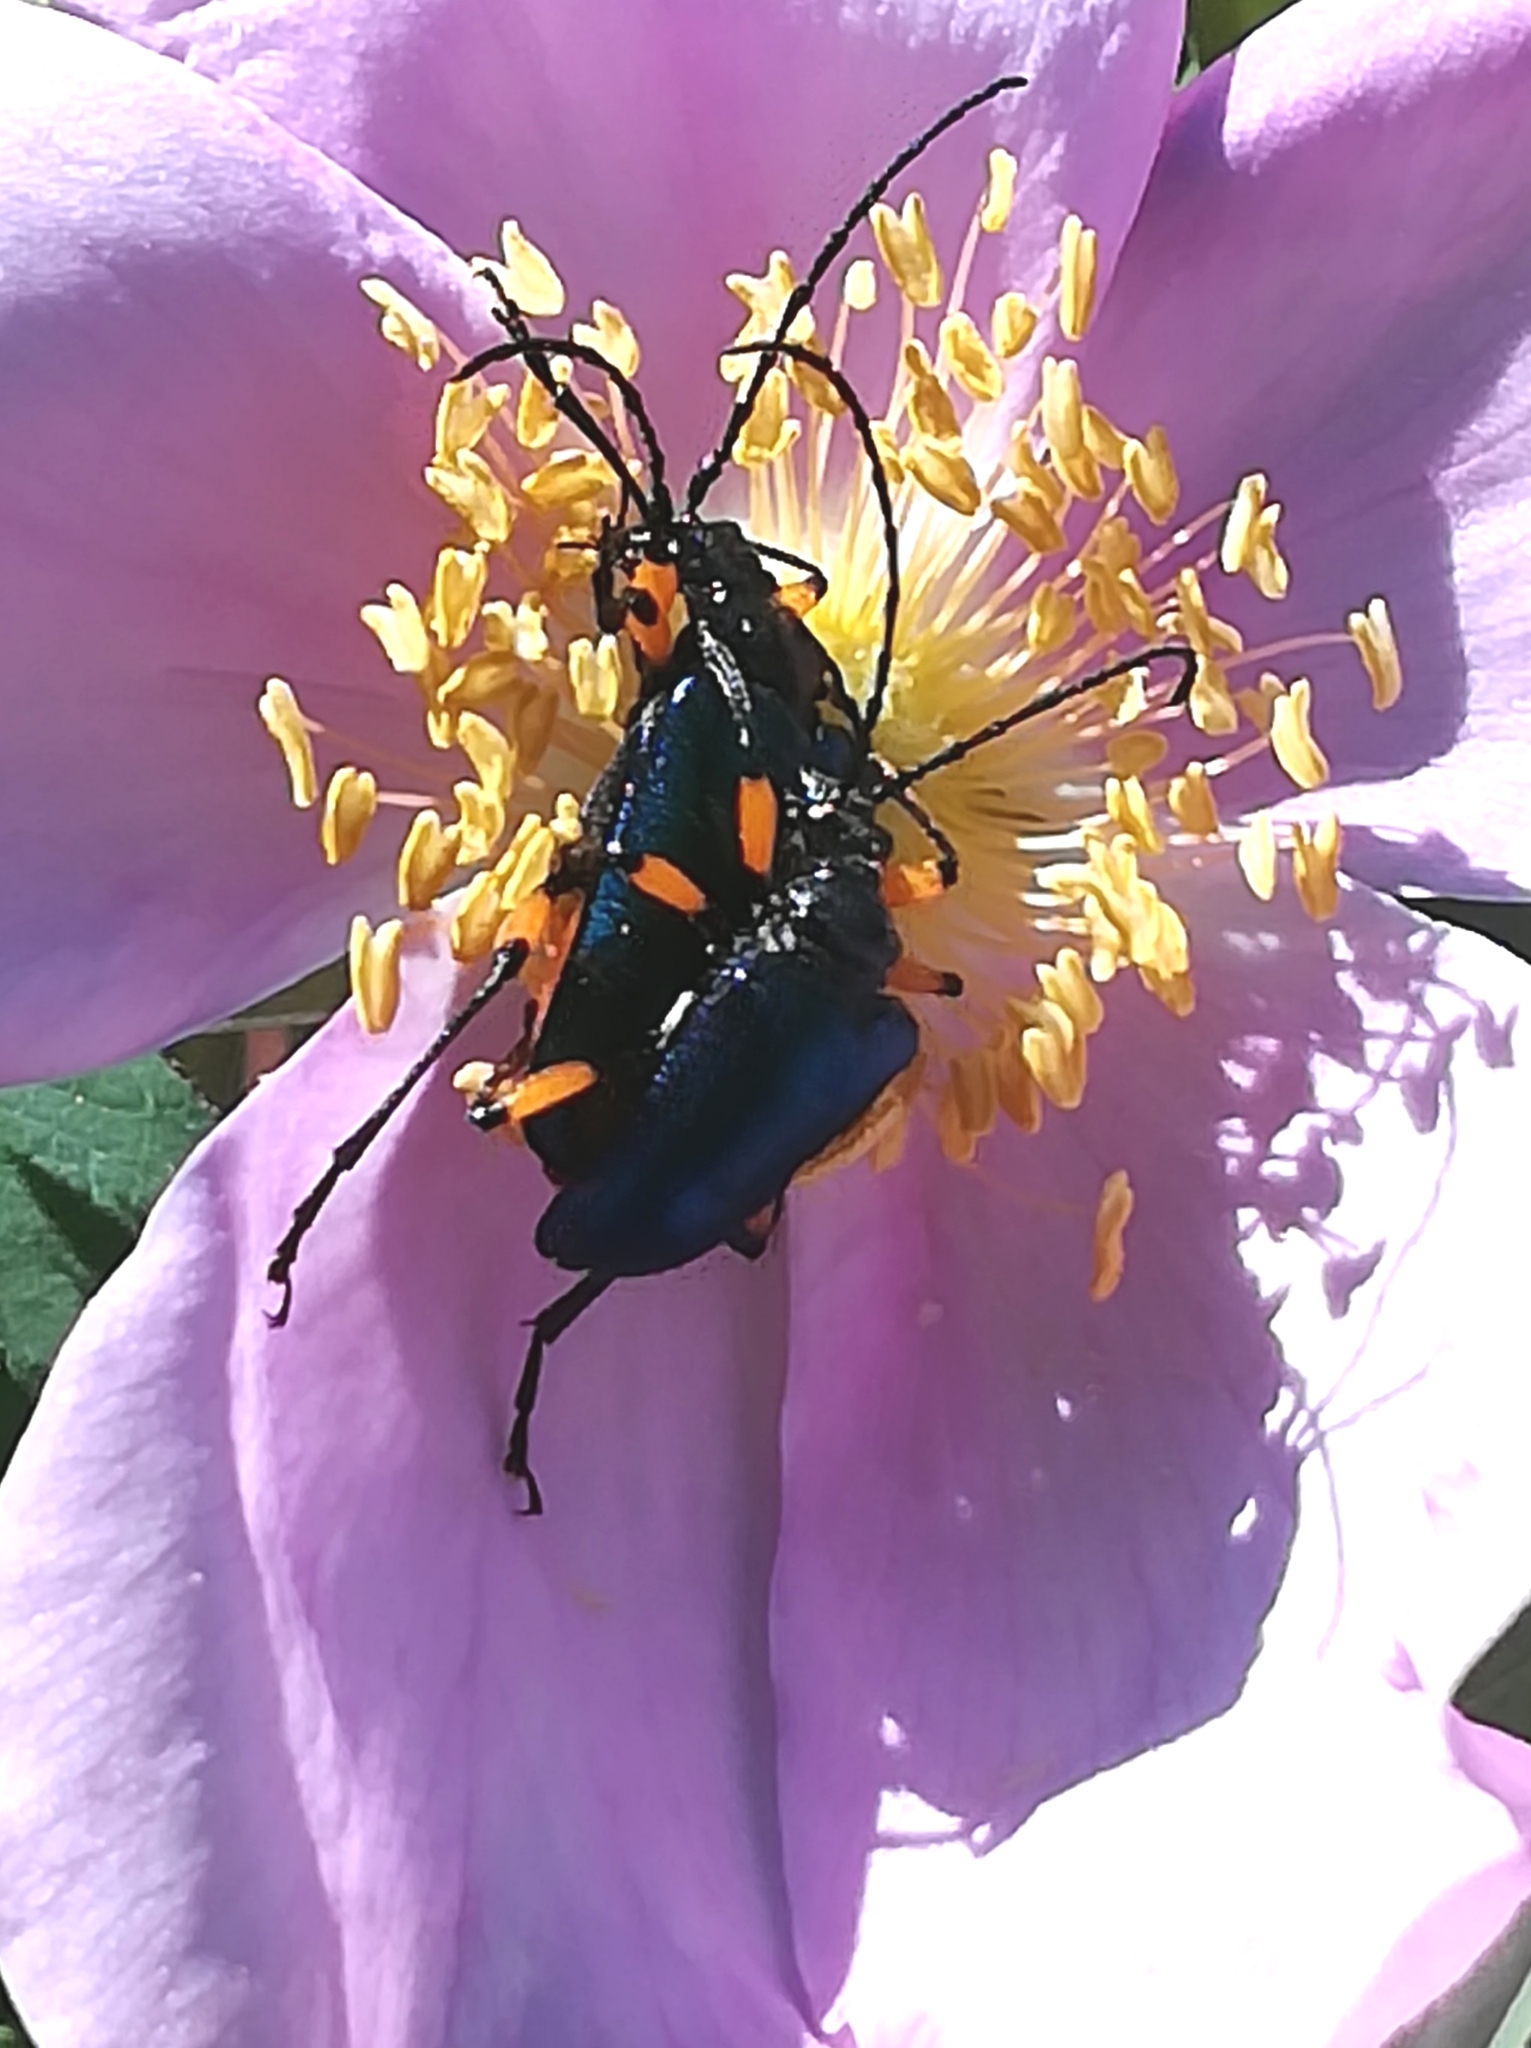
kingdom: Animalia
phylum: Arthropoda
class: Insecta
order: Coleoptera
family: Cerambycidae
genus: Pseudogaurotina
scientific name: Pseudogaurotina cressoni
